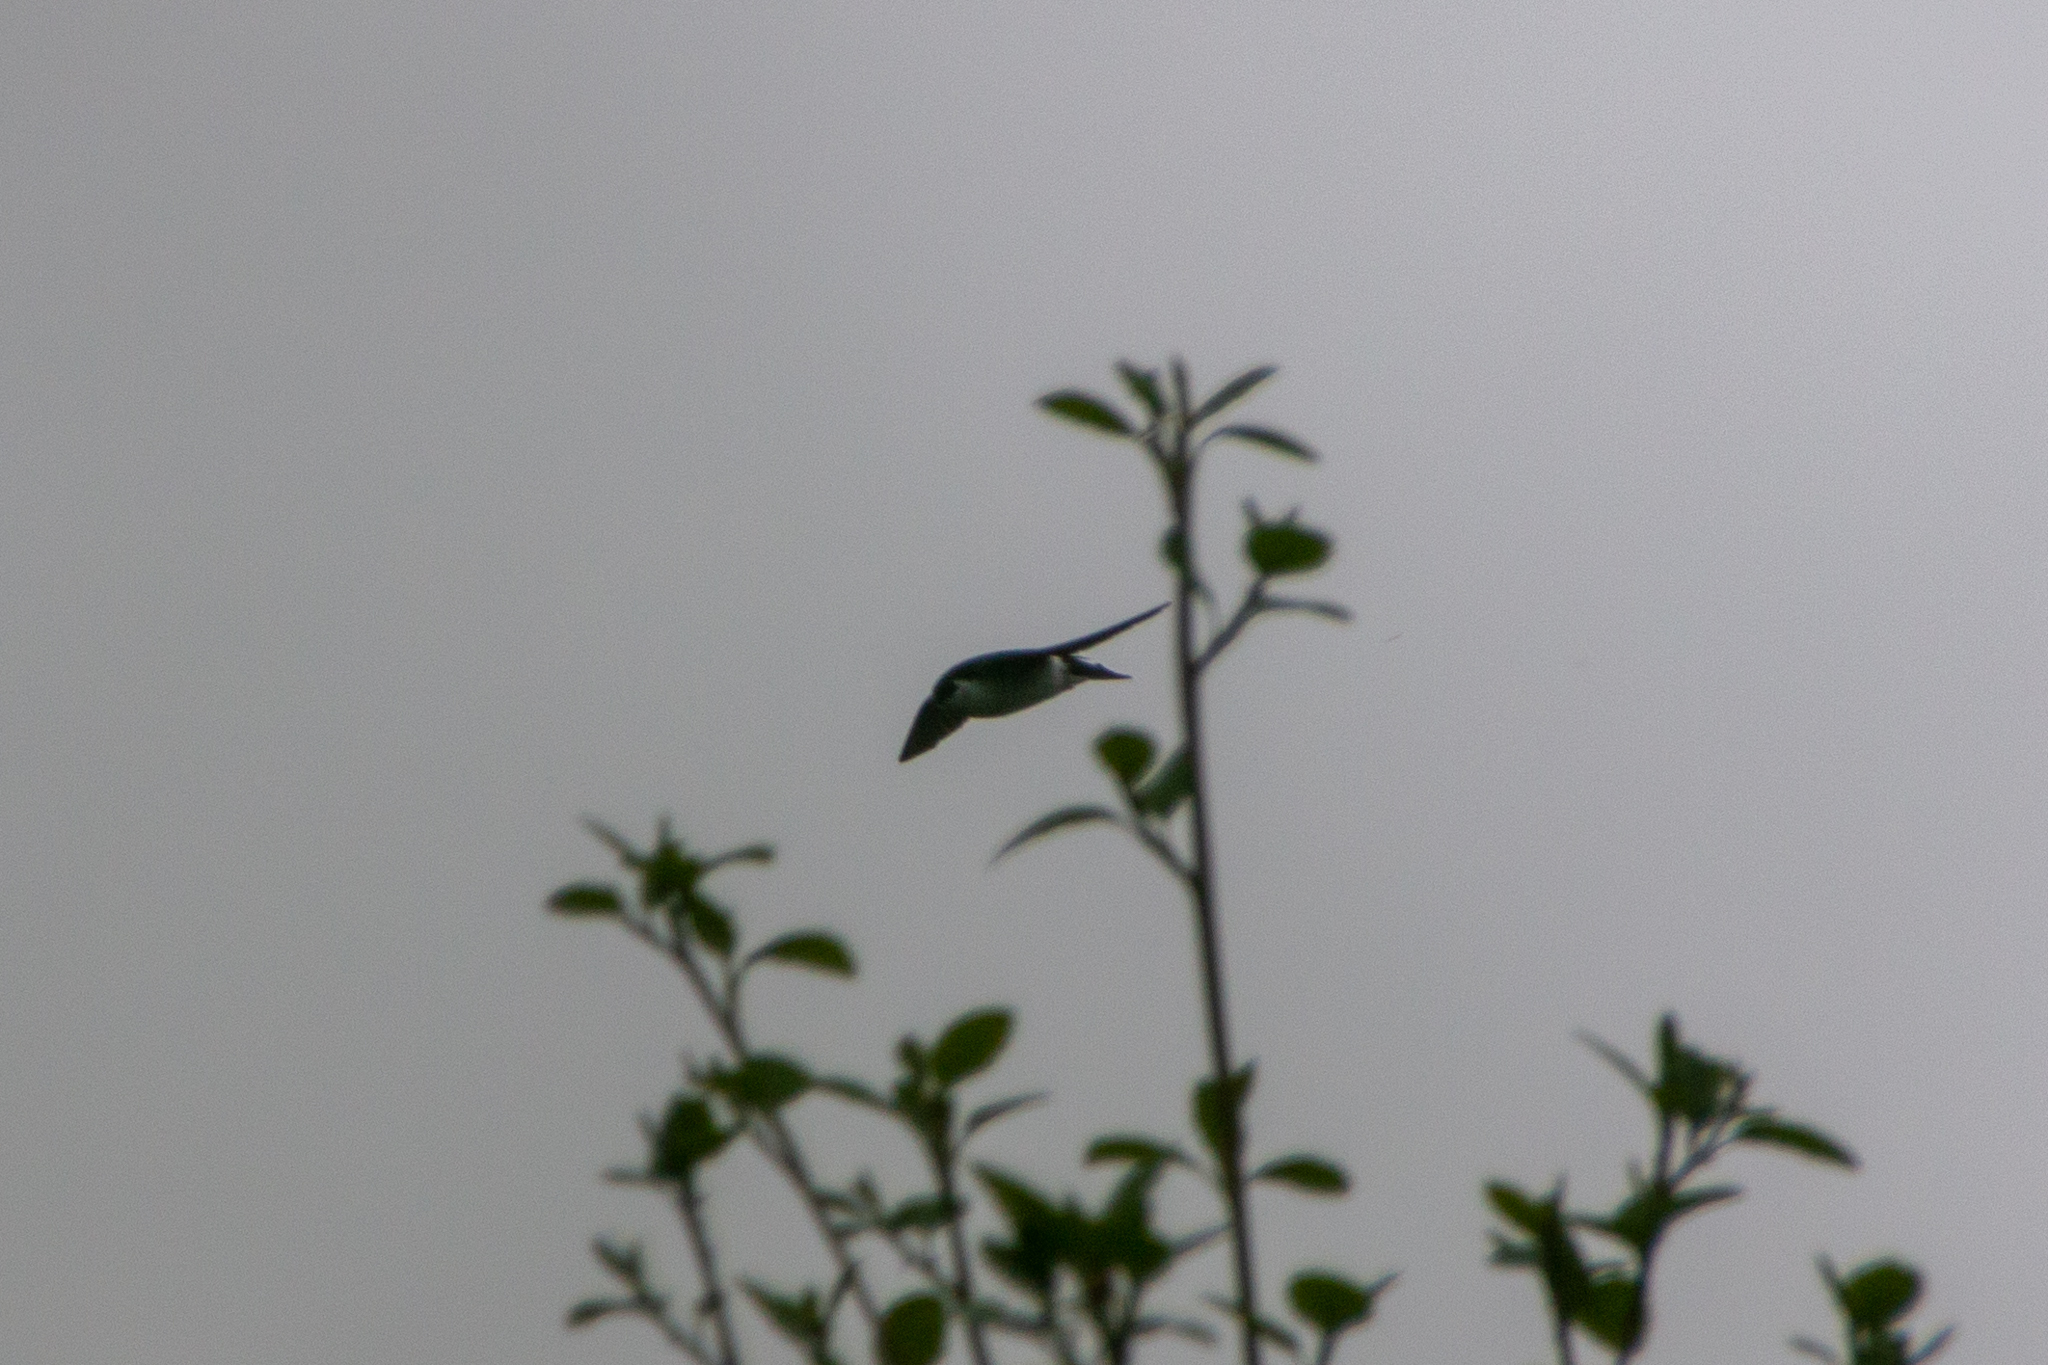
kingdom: Animalia
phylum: Chordata
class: Aves
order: Passeriformes
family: Hirundinidae
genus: Tachycineta
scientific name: Tachycineta thalassina
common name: Violet-green swallow
